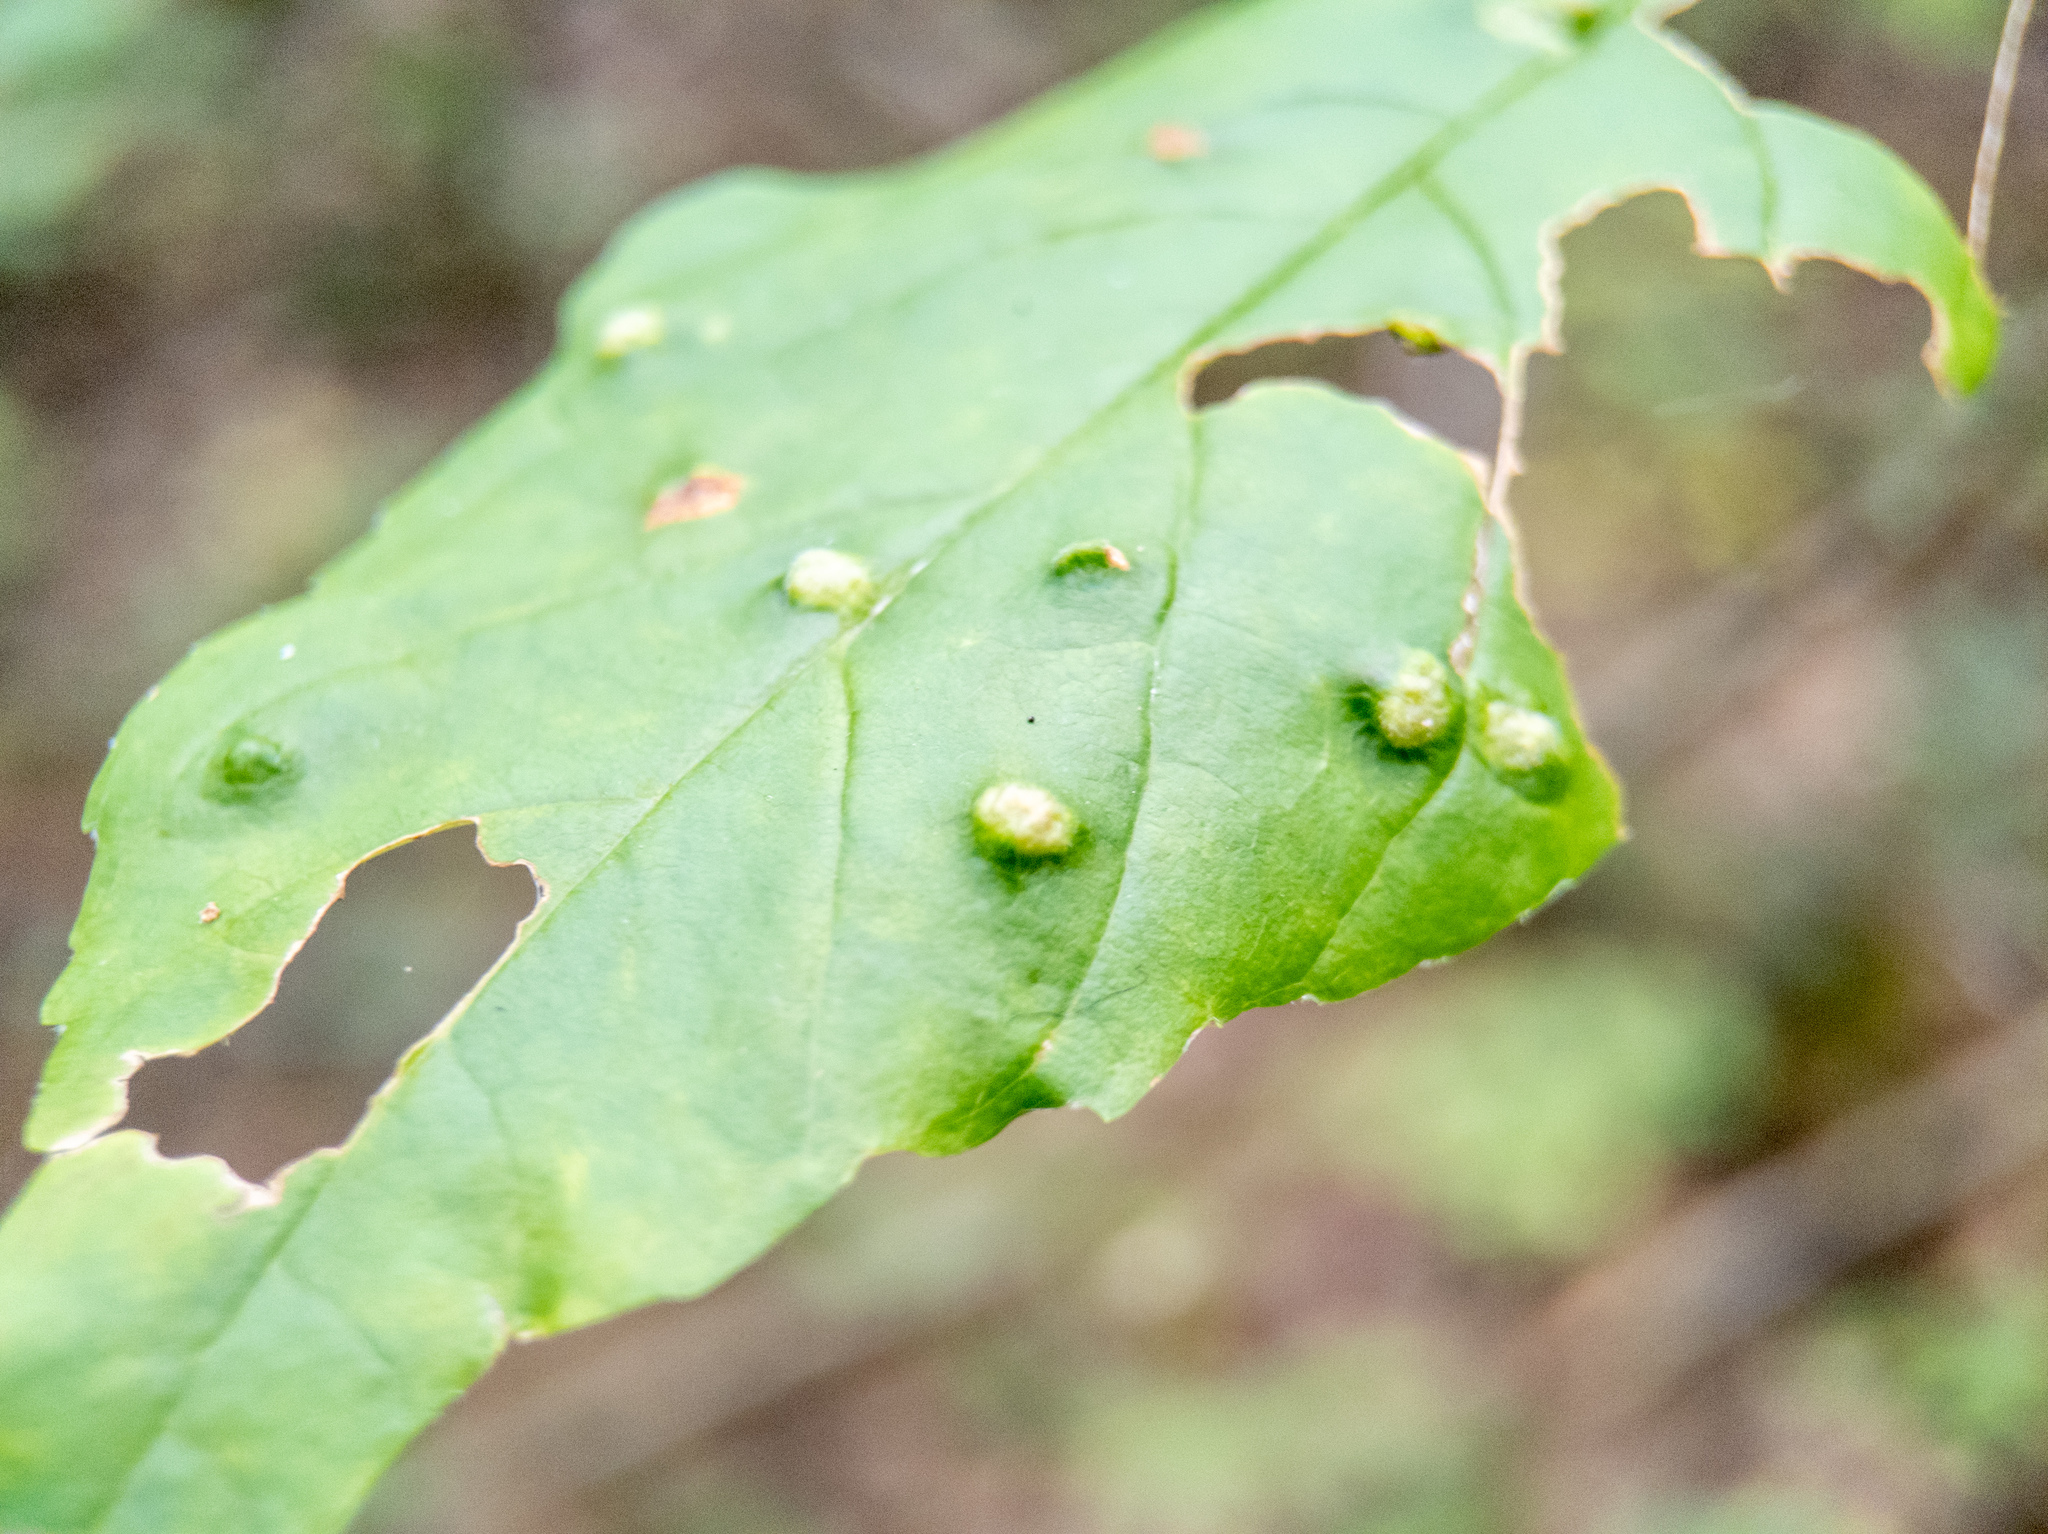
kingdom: Animalia
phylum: Arthropoda
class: Arachnida
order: Trombidiformes
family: Eriophyidae
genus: Aceria
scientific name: Aceria fraxinicola
